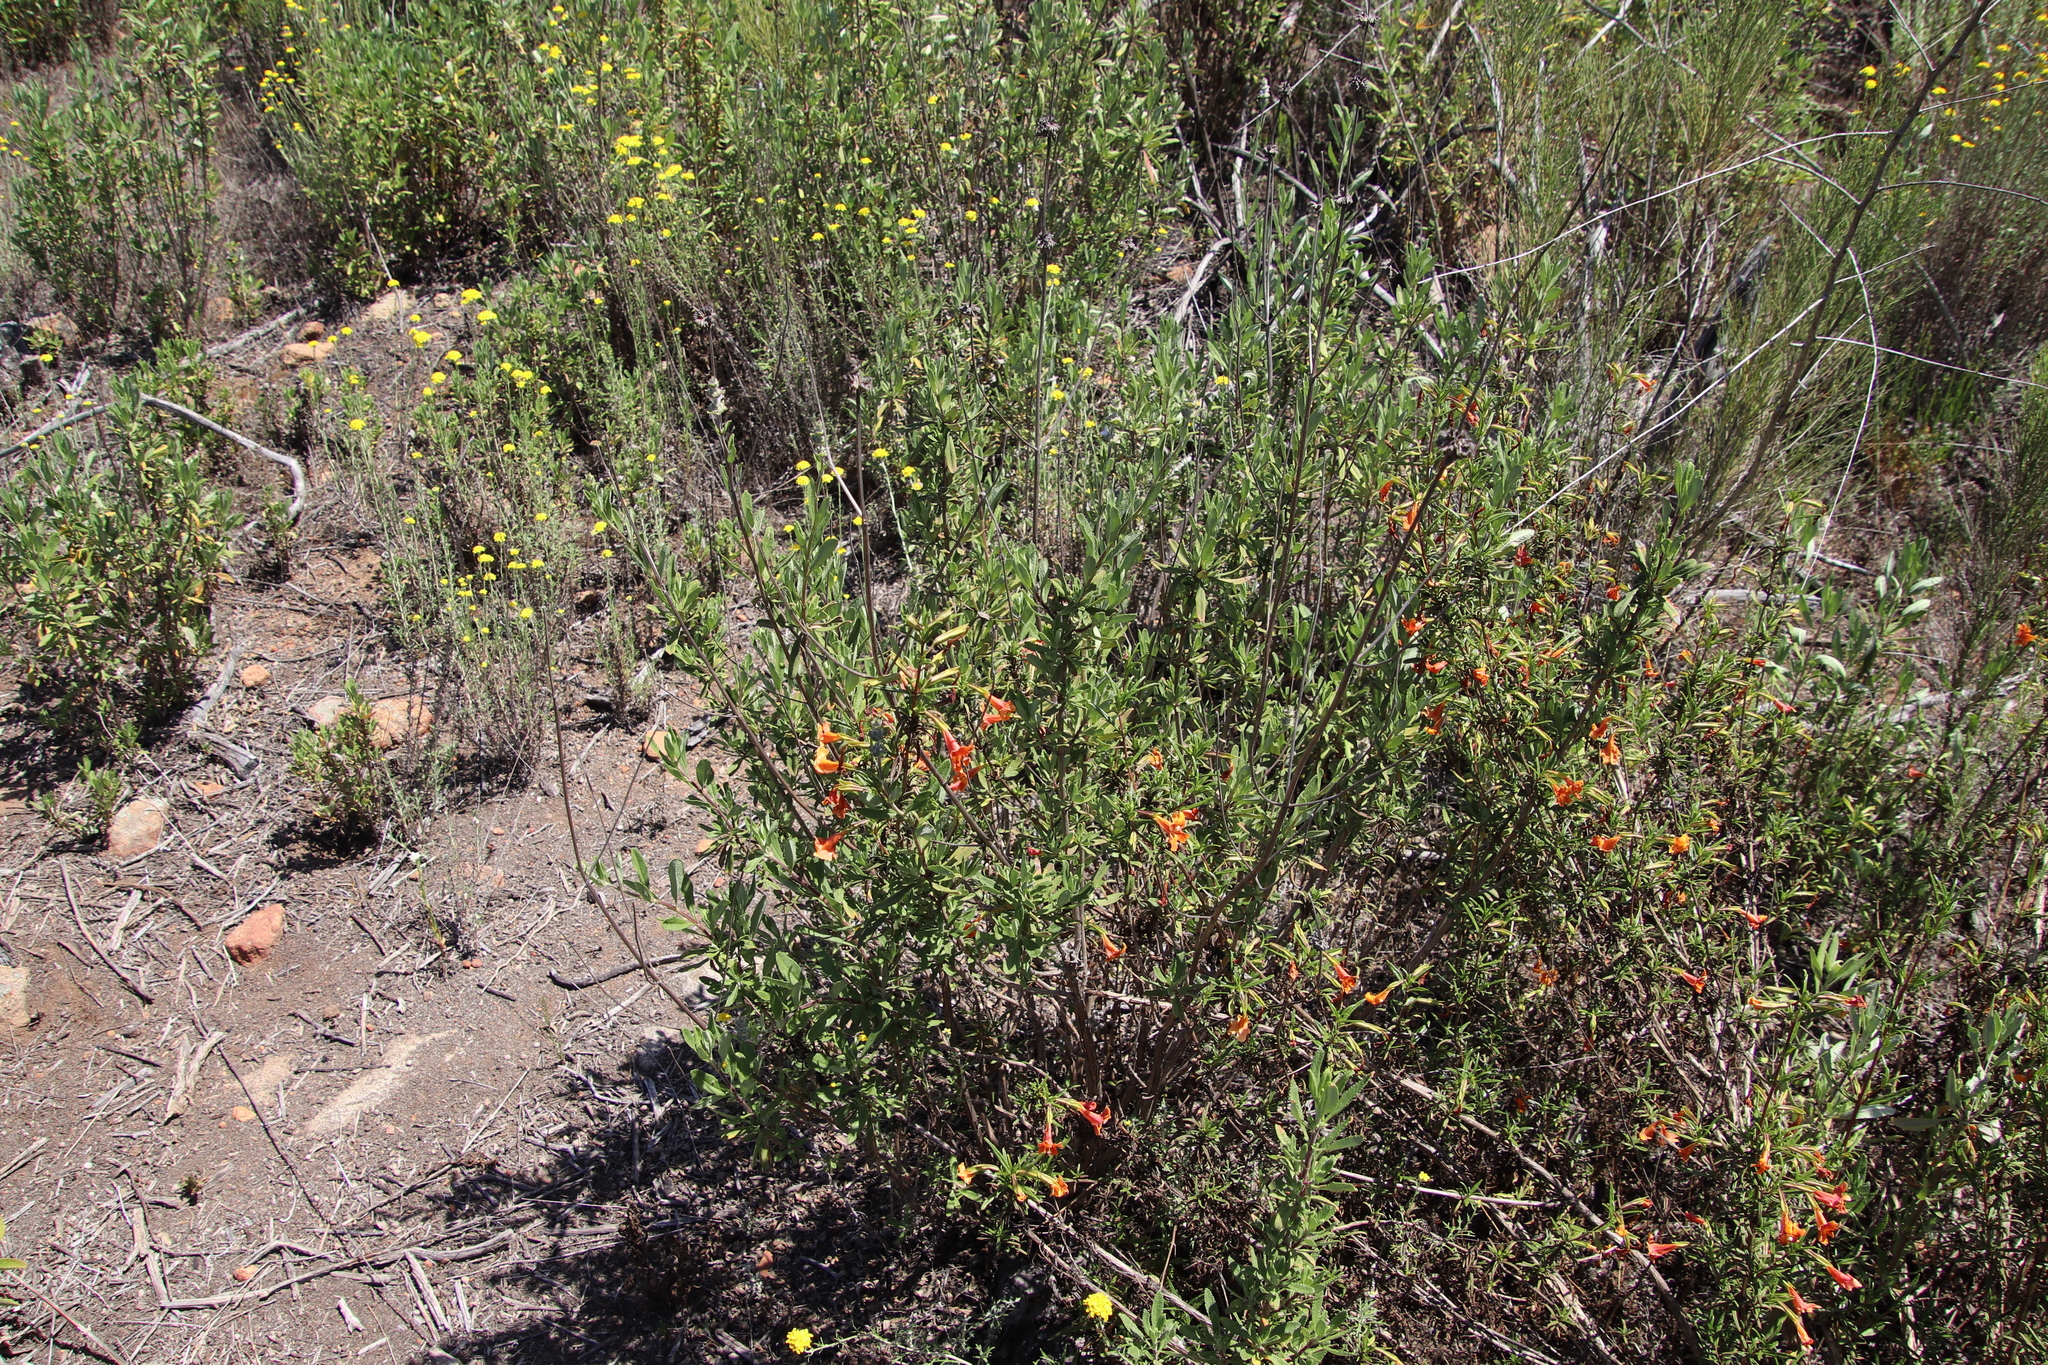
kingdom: Plantae
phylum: Tracheophyta
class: Magnoliopsida
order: Lamiales
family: Phrymaceae
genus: Diplacus
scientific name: Diplacus australis
